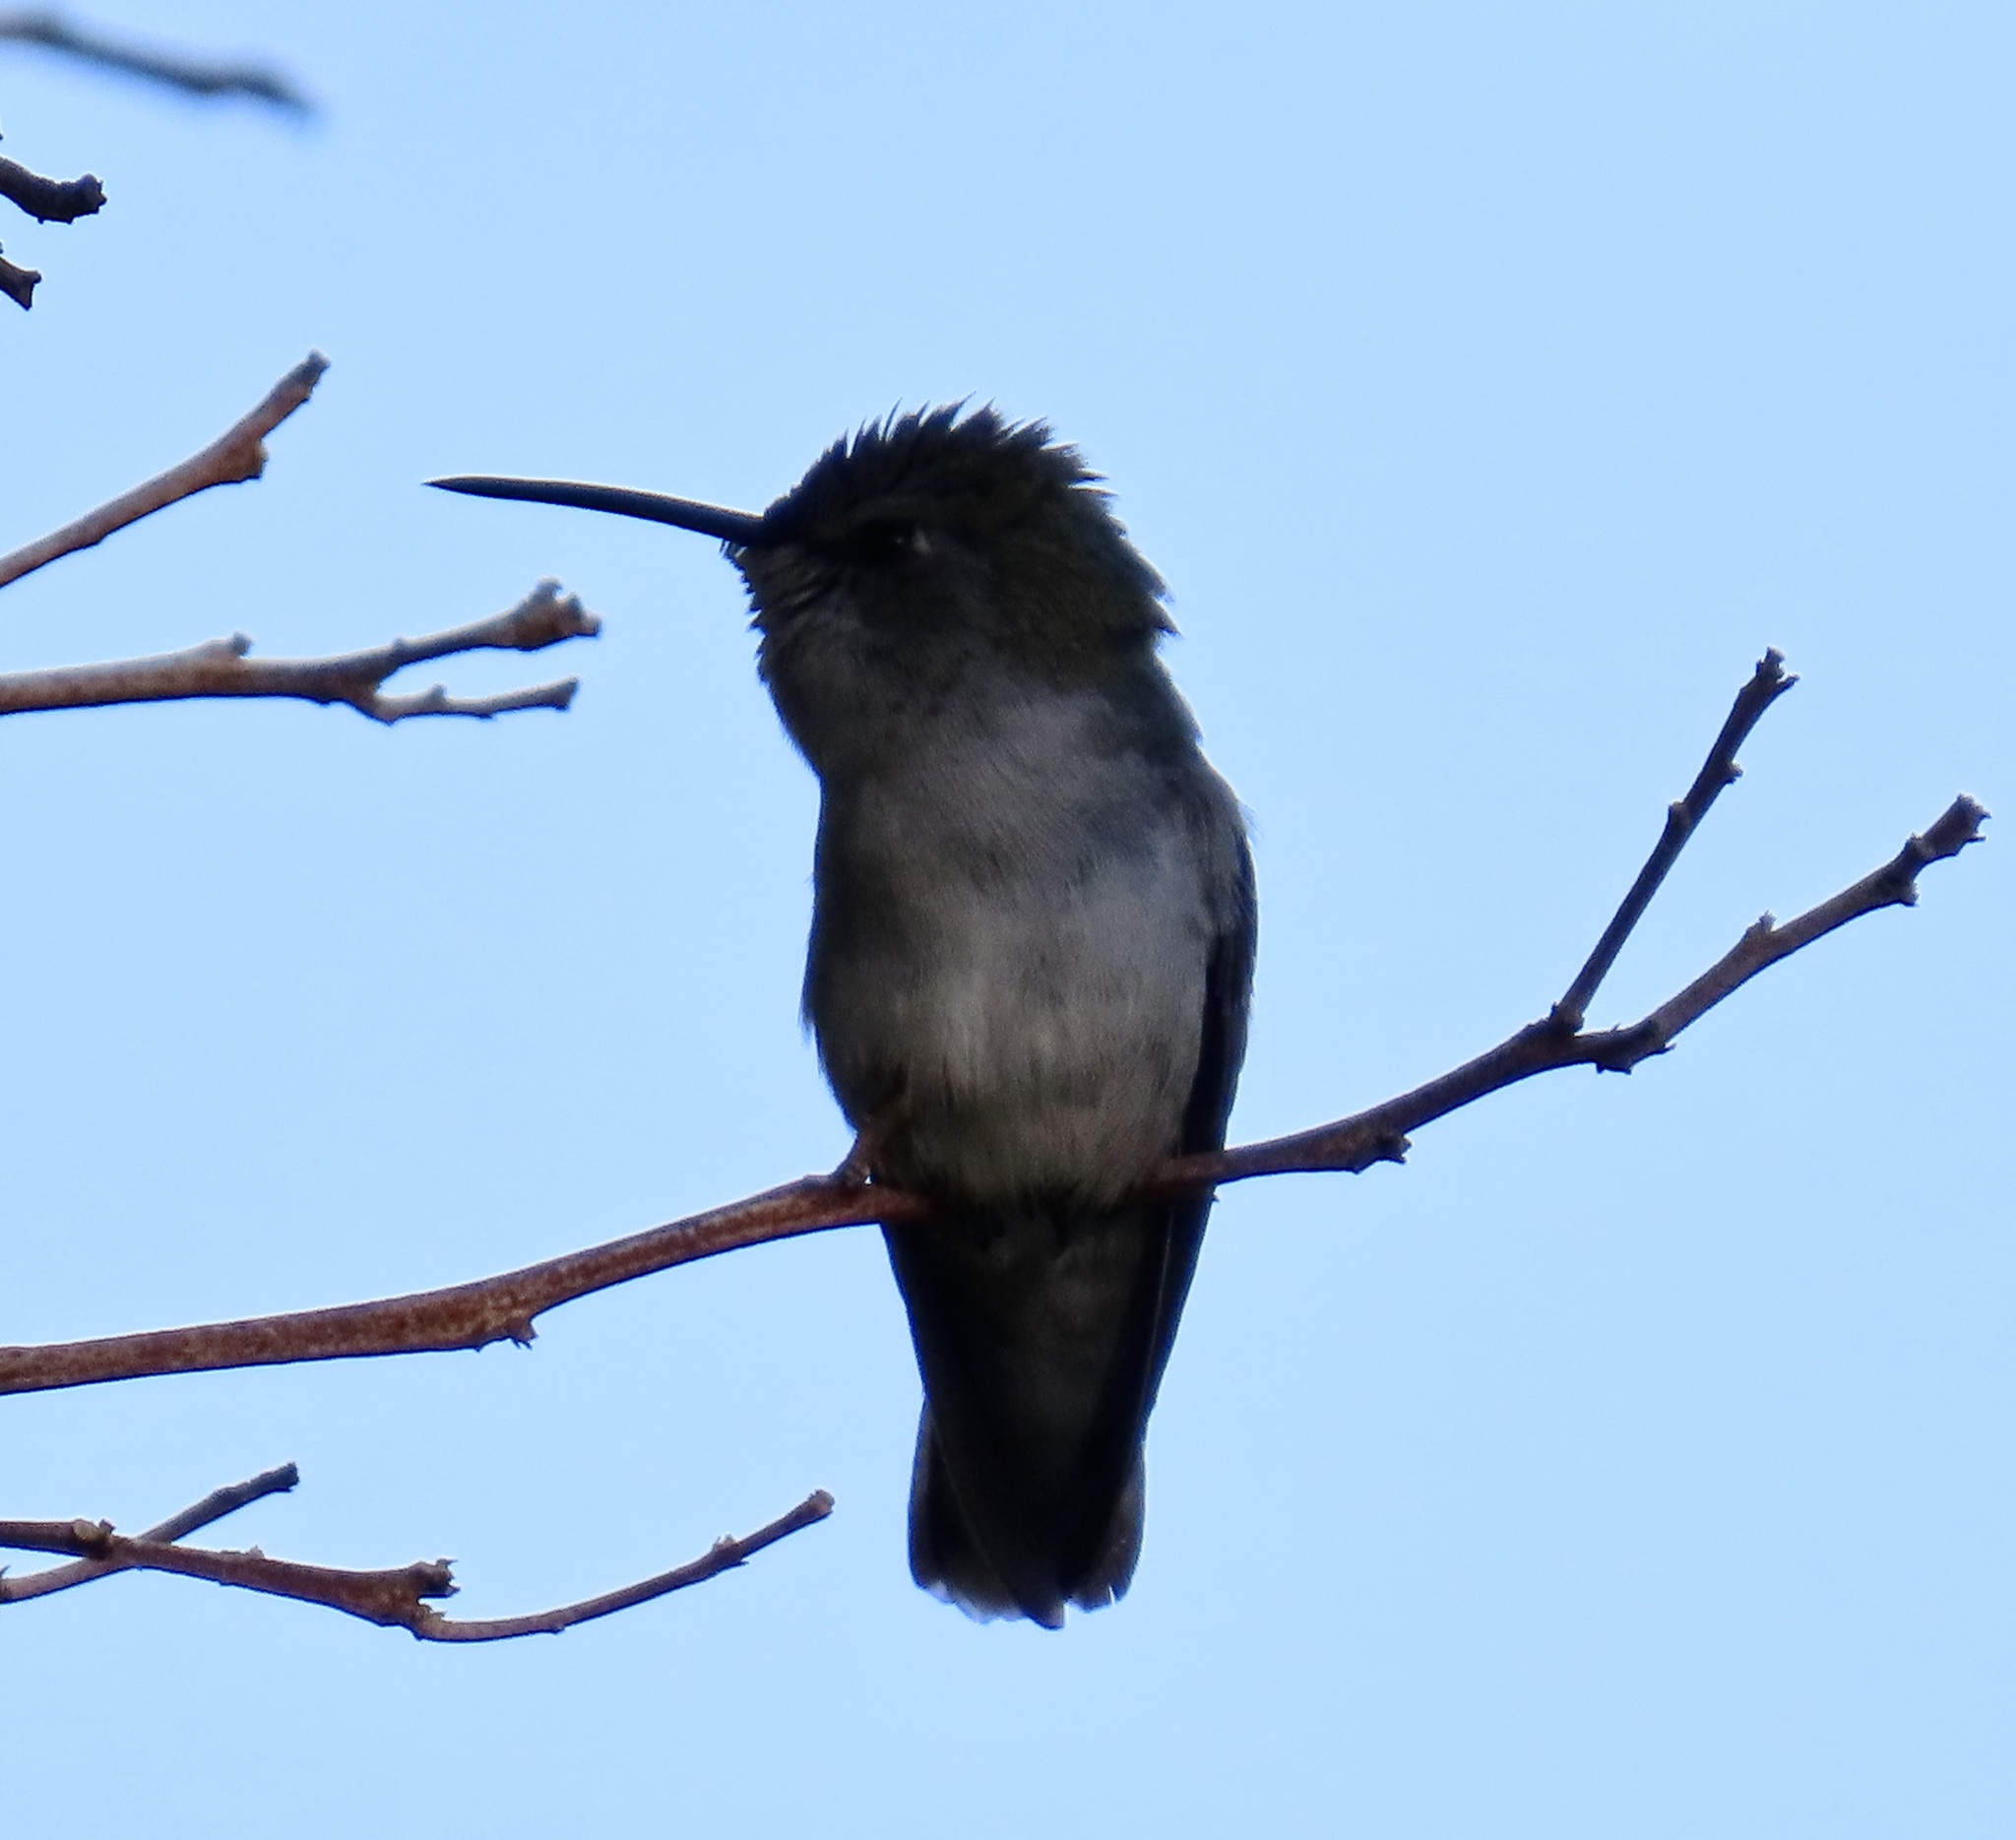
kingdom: Animalia
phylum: Chordata
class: Aves
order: Apodiformes
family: Trochilidae
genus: Calypte
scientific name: Calypte costae
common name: Costa's hummingbird
